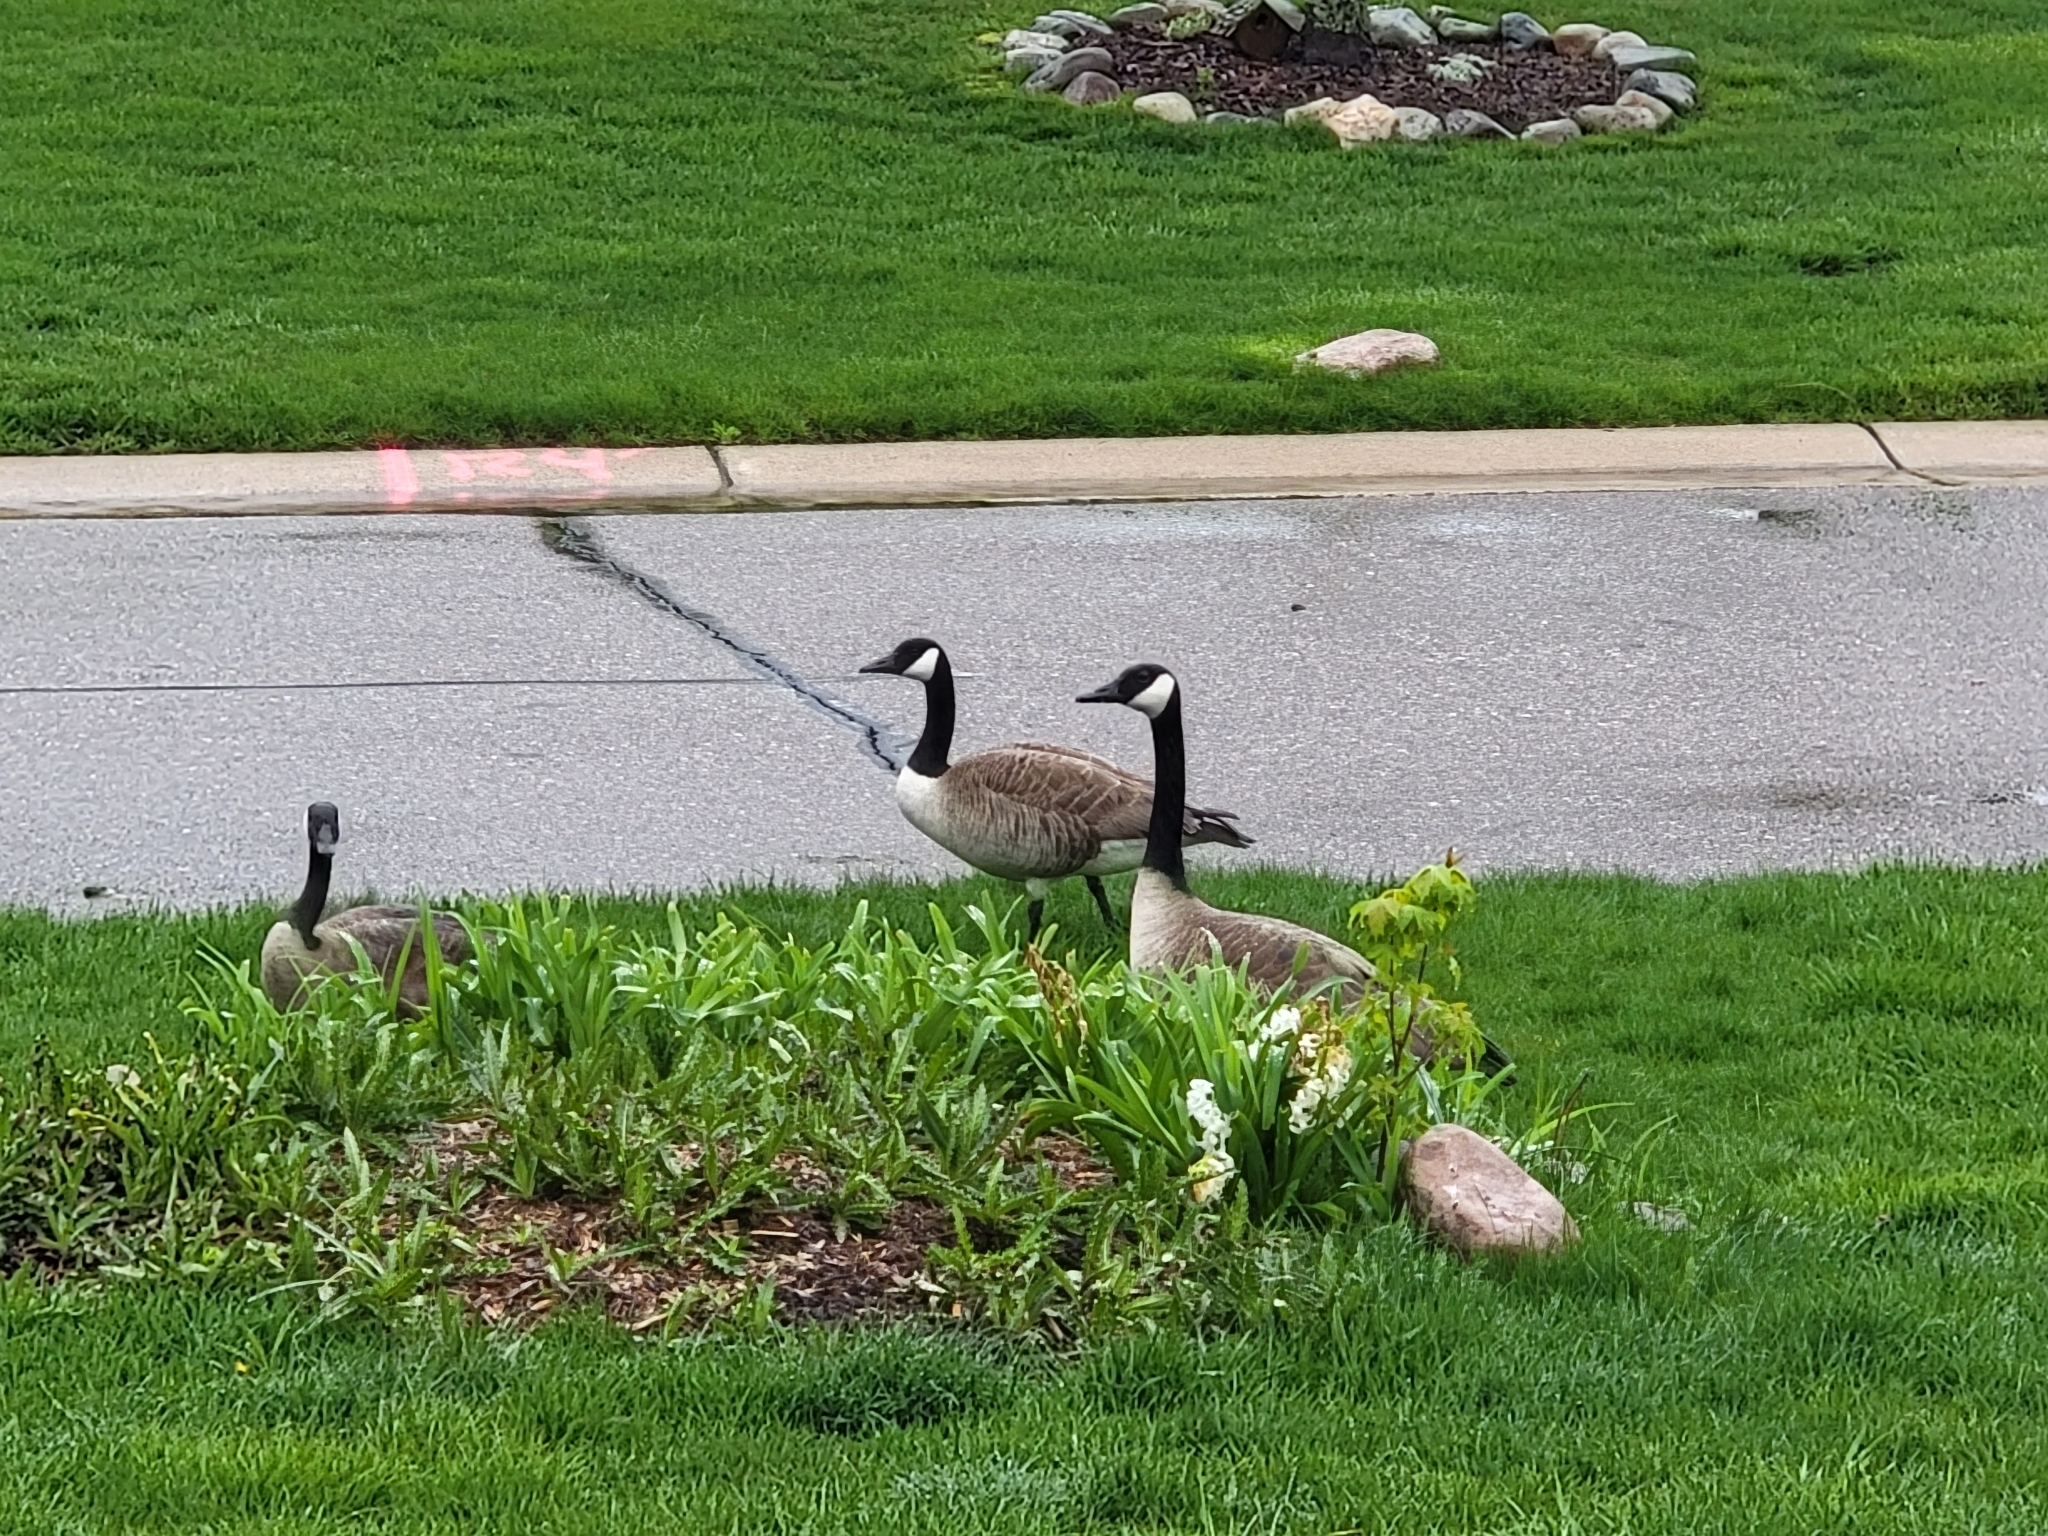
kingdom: Animalia
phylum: Chordata
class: Aves
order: Anseriformes
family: Anatidae
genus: Branta
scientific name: Branta canadensis
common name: Canada goose
